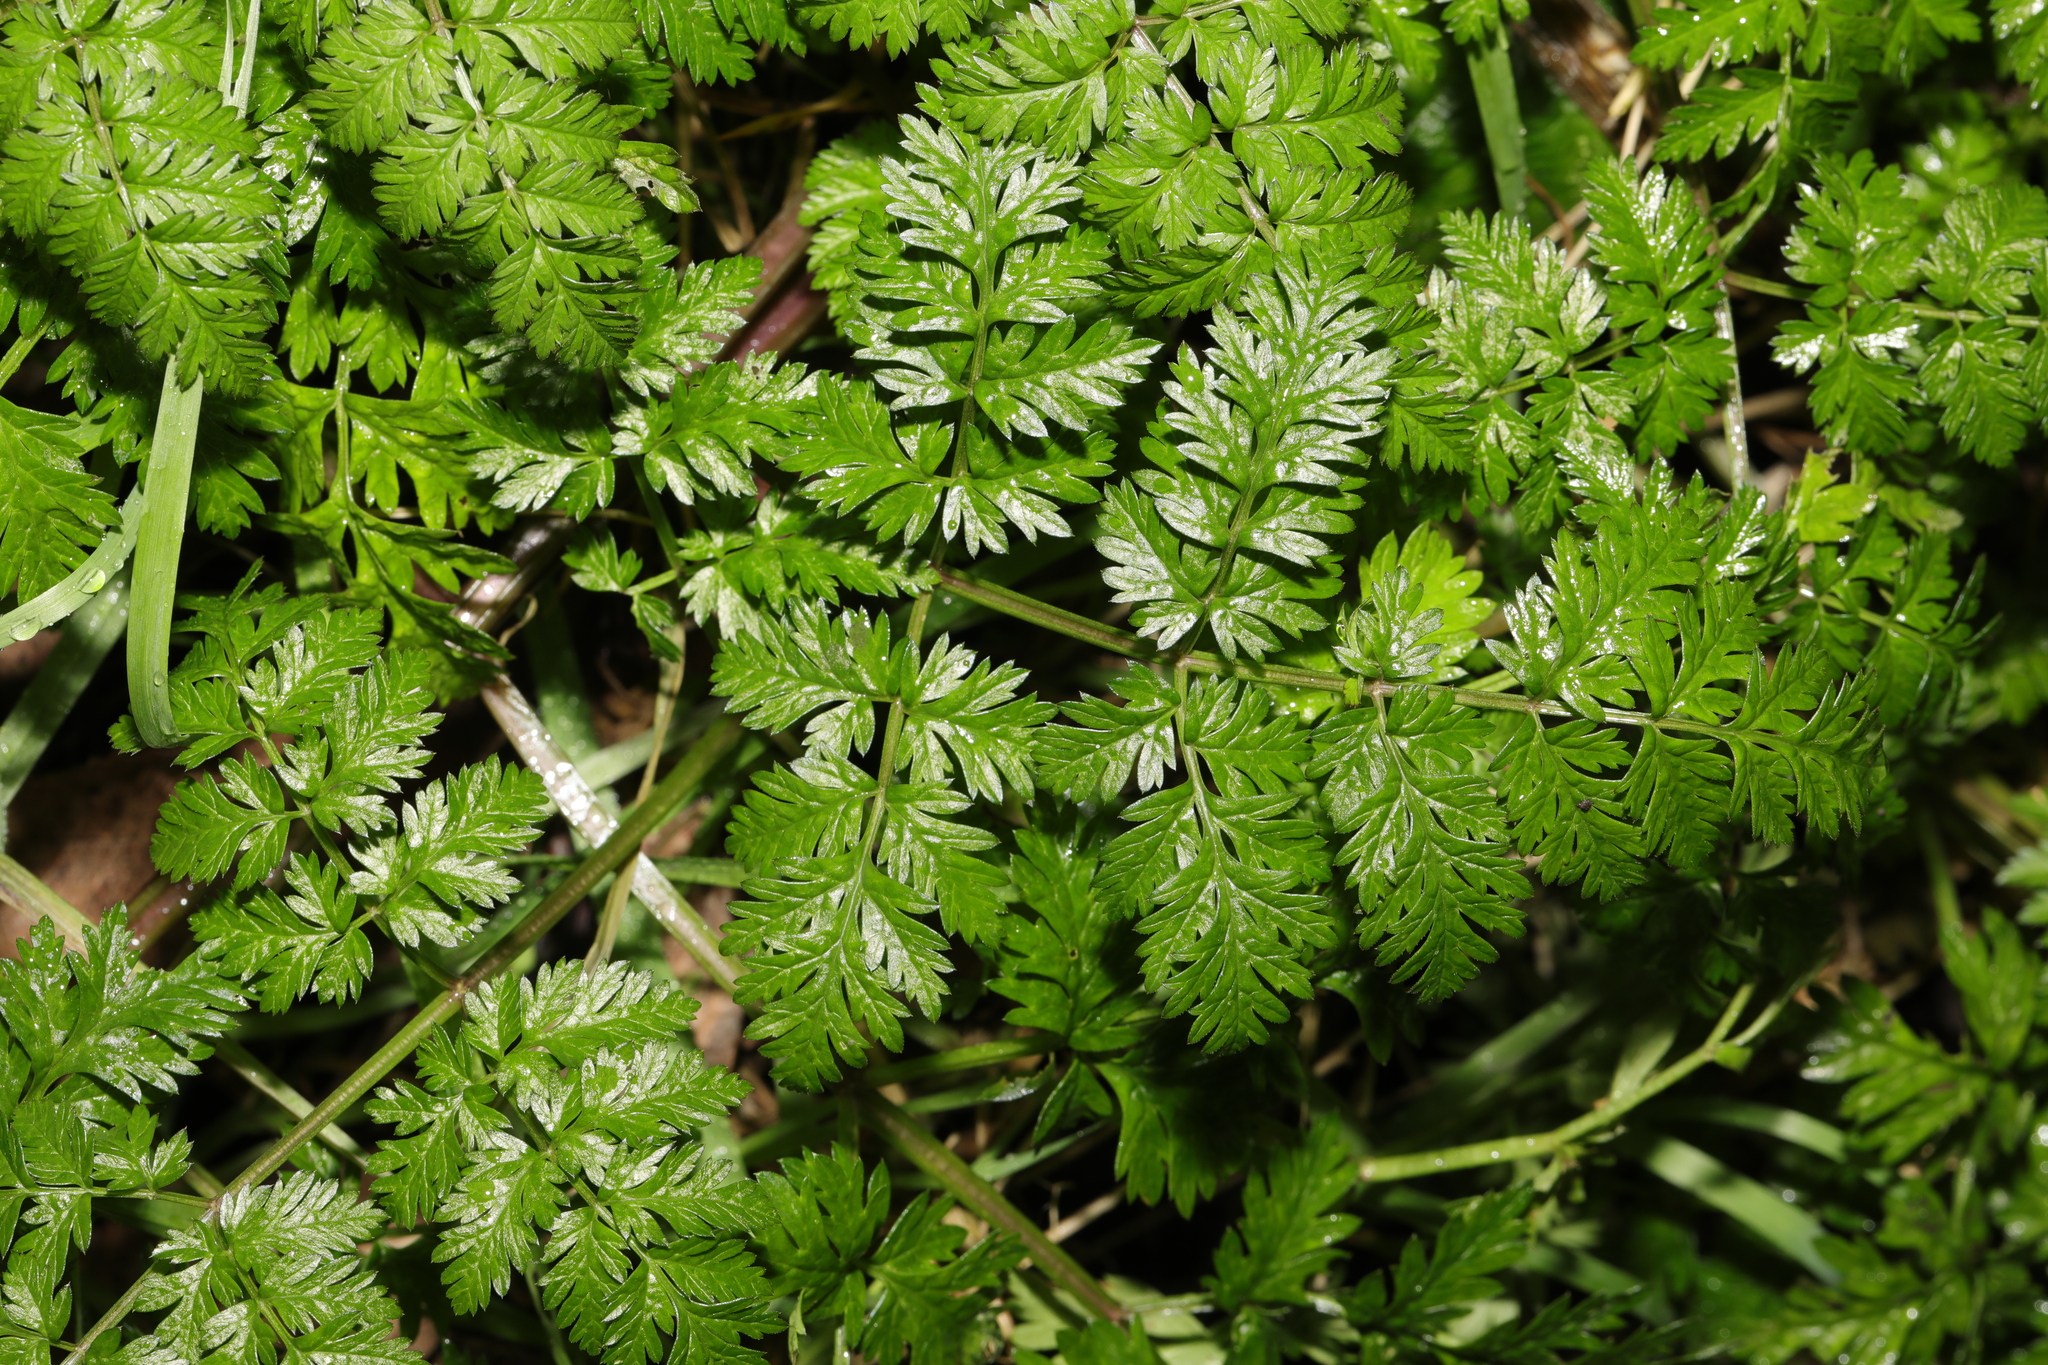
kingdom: Plantae
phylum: Tracheophyta
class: Magnoliopsida
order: Apiales
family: Apiaceae
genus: Anthriscus
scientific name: Anthriscus sylvestris
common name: Cow parsley
